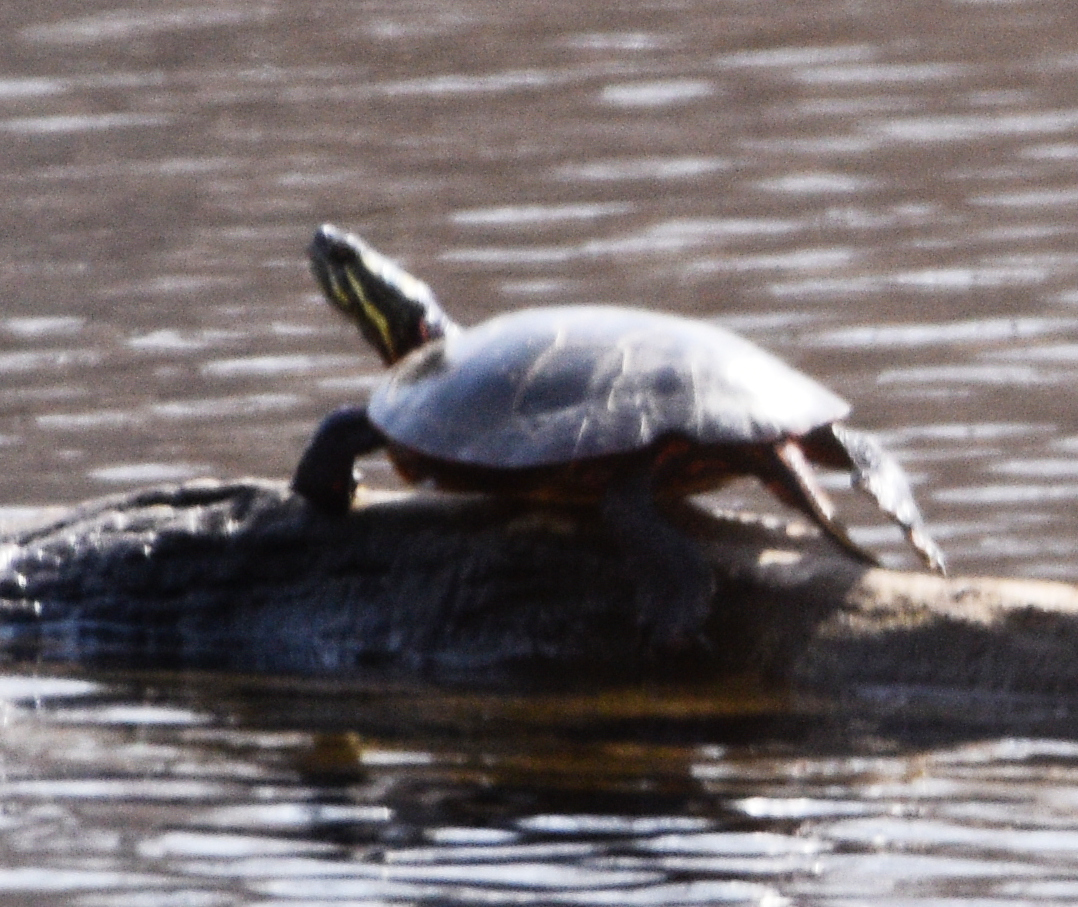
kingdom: Animalia
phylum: Chordata
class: Testudines
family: Emydidae
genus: Chrysemys
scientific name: Chrysemys picta
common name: Painted turtle
